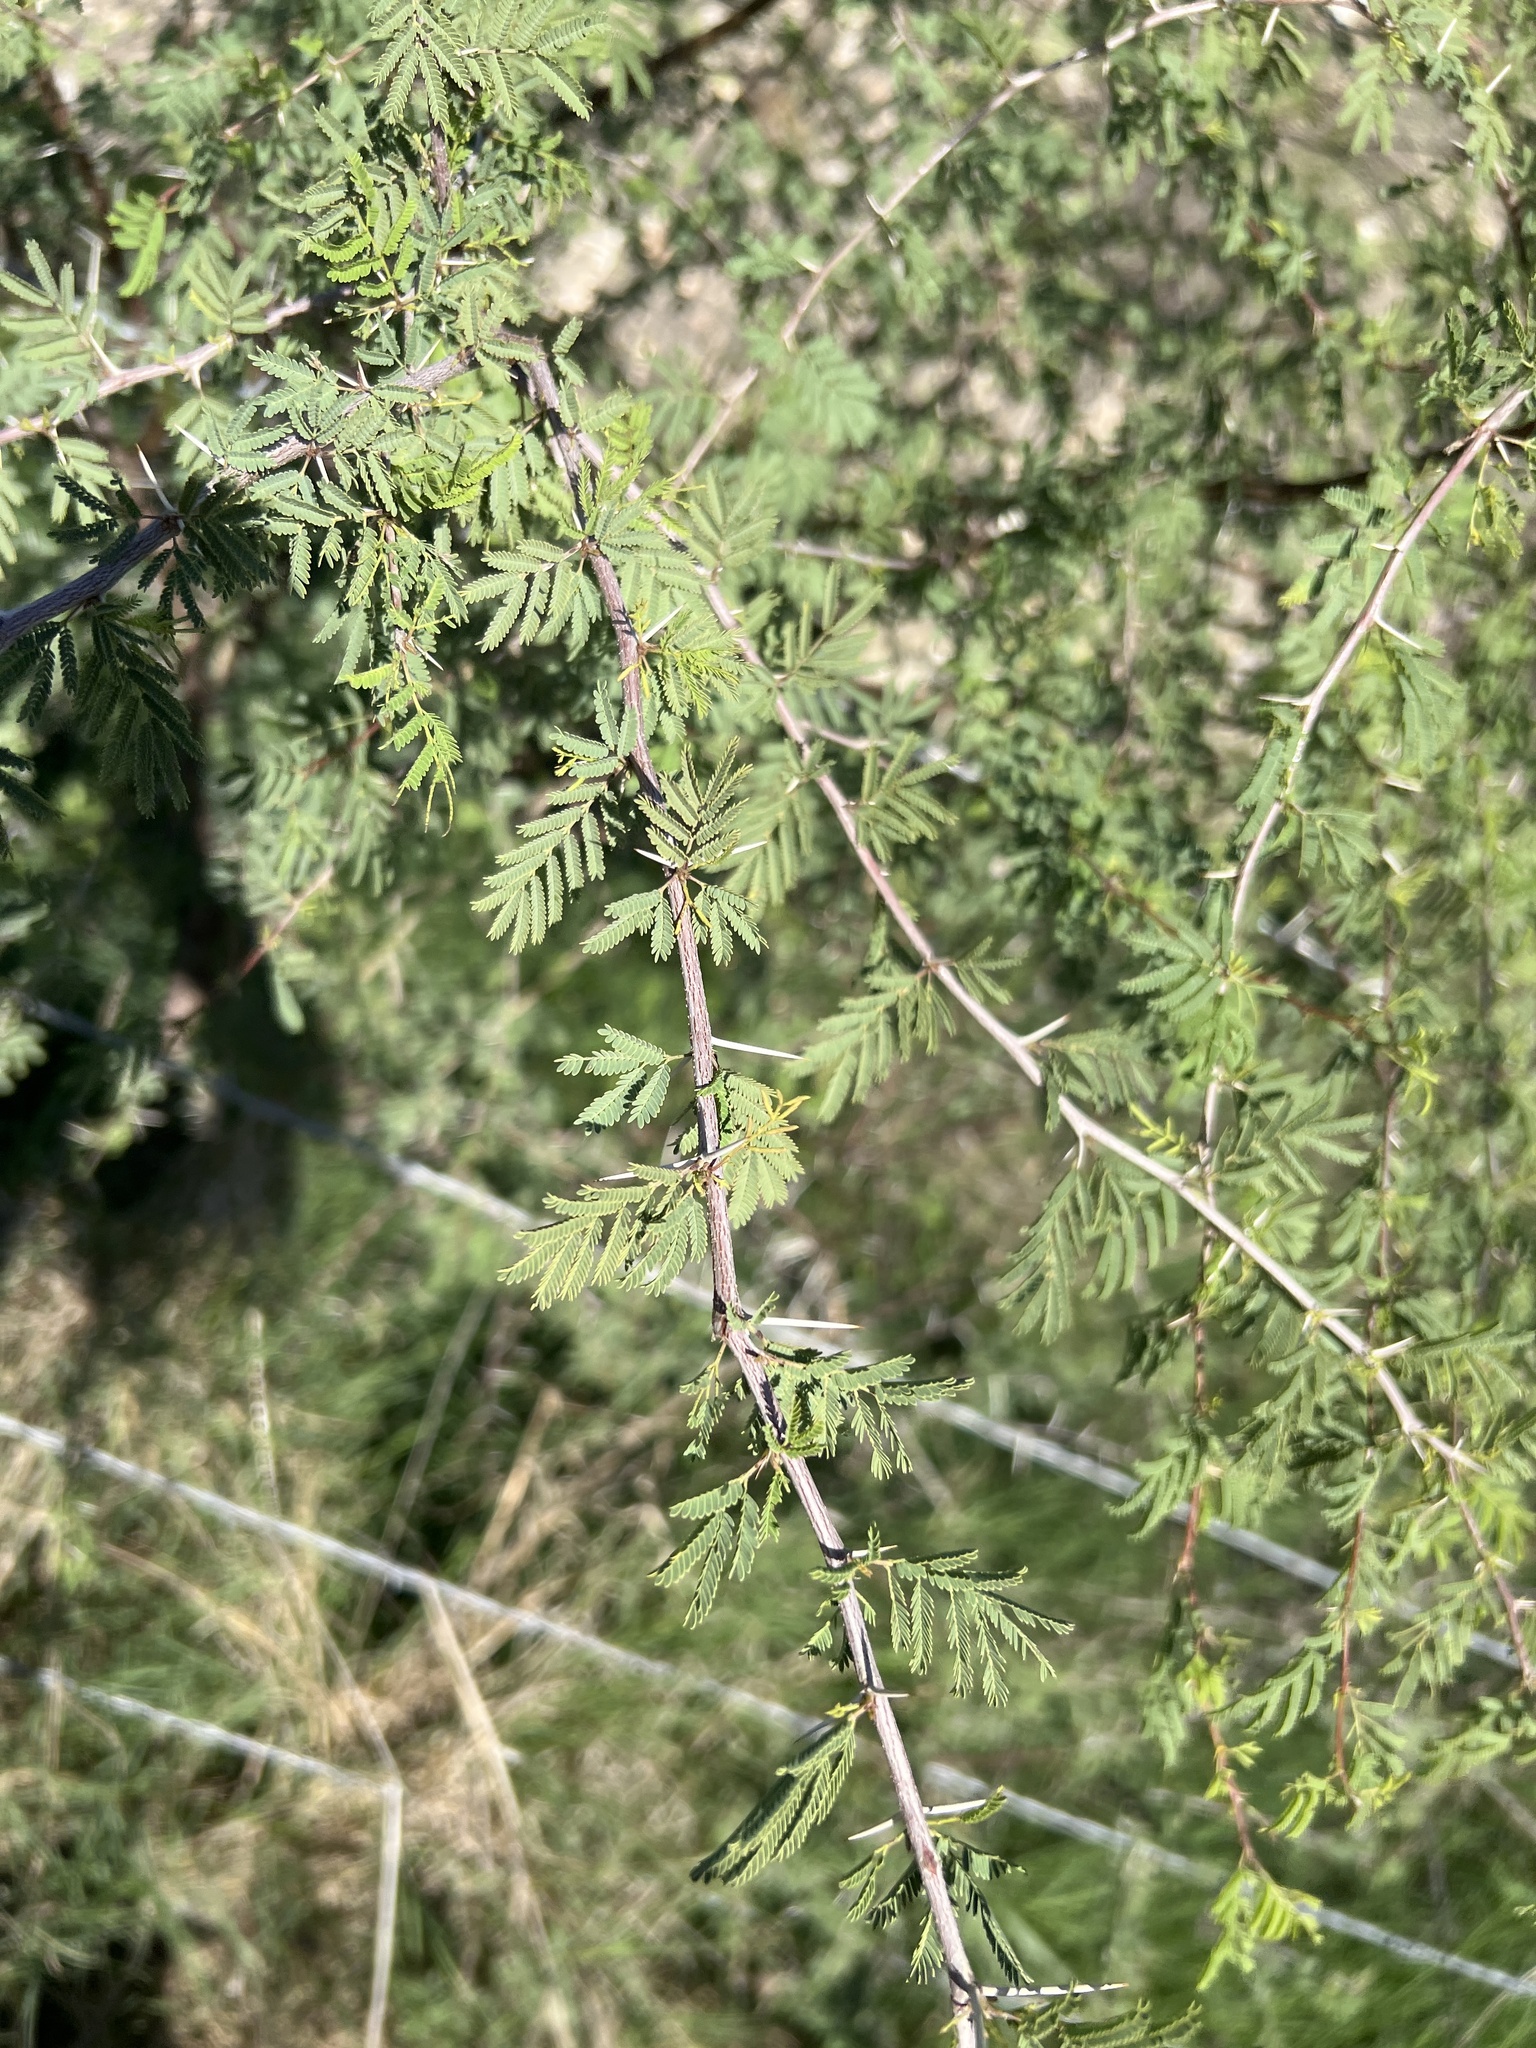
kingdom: Plantae
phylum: Tracheophyta
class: Magnoliopsida
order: Fabales
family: Fabaceae
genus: Vachellia
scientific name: Vachellia farnesiana
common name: Sweet acacia
